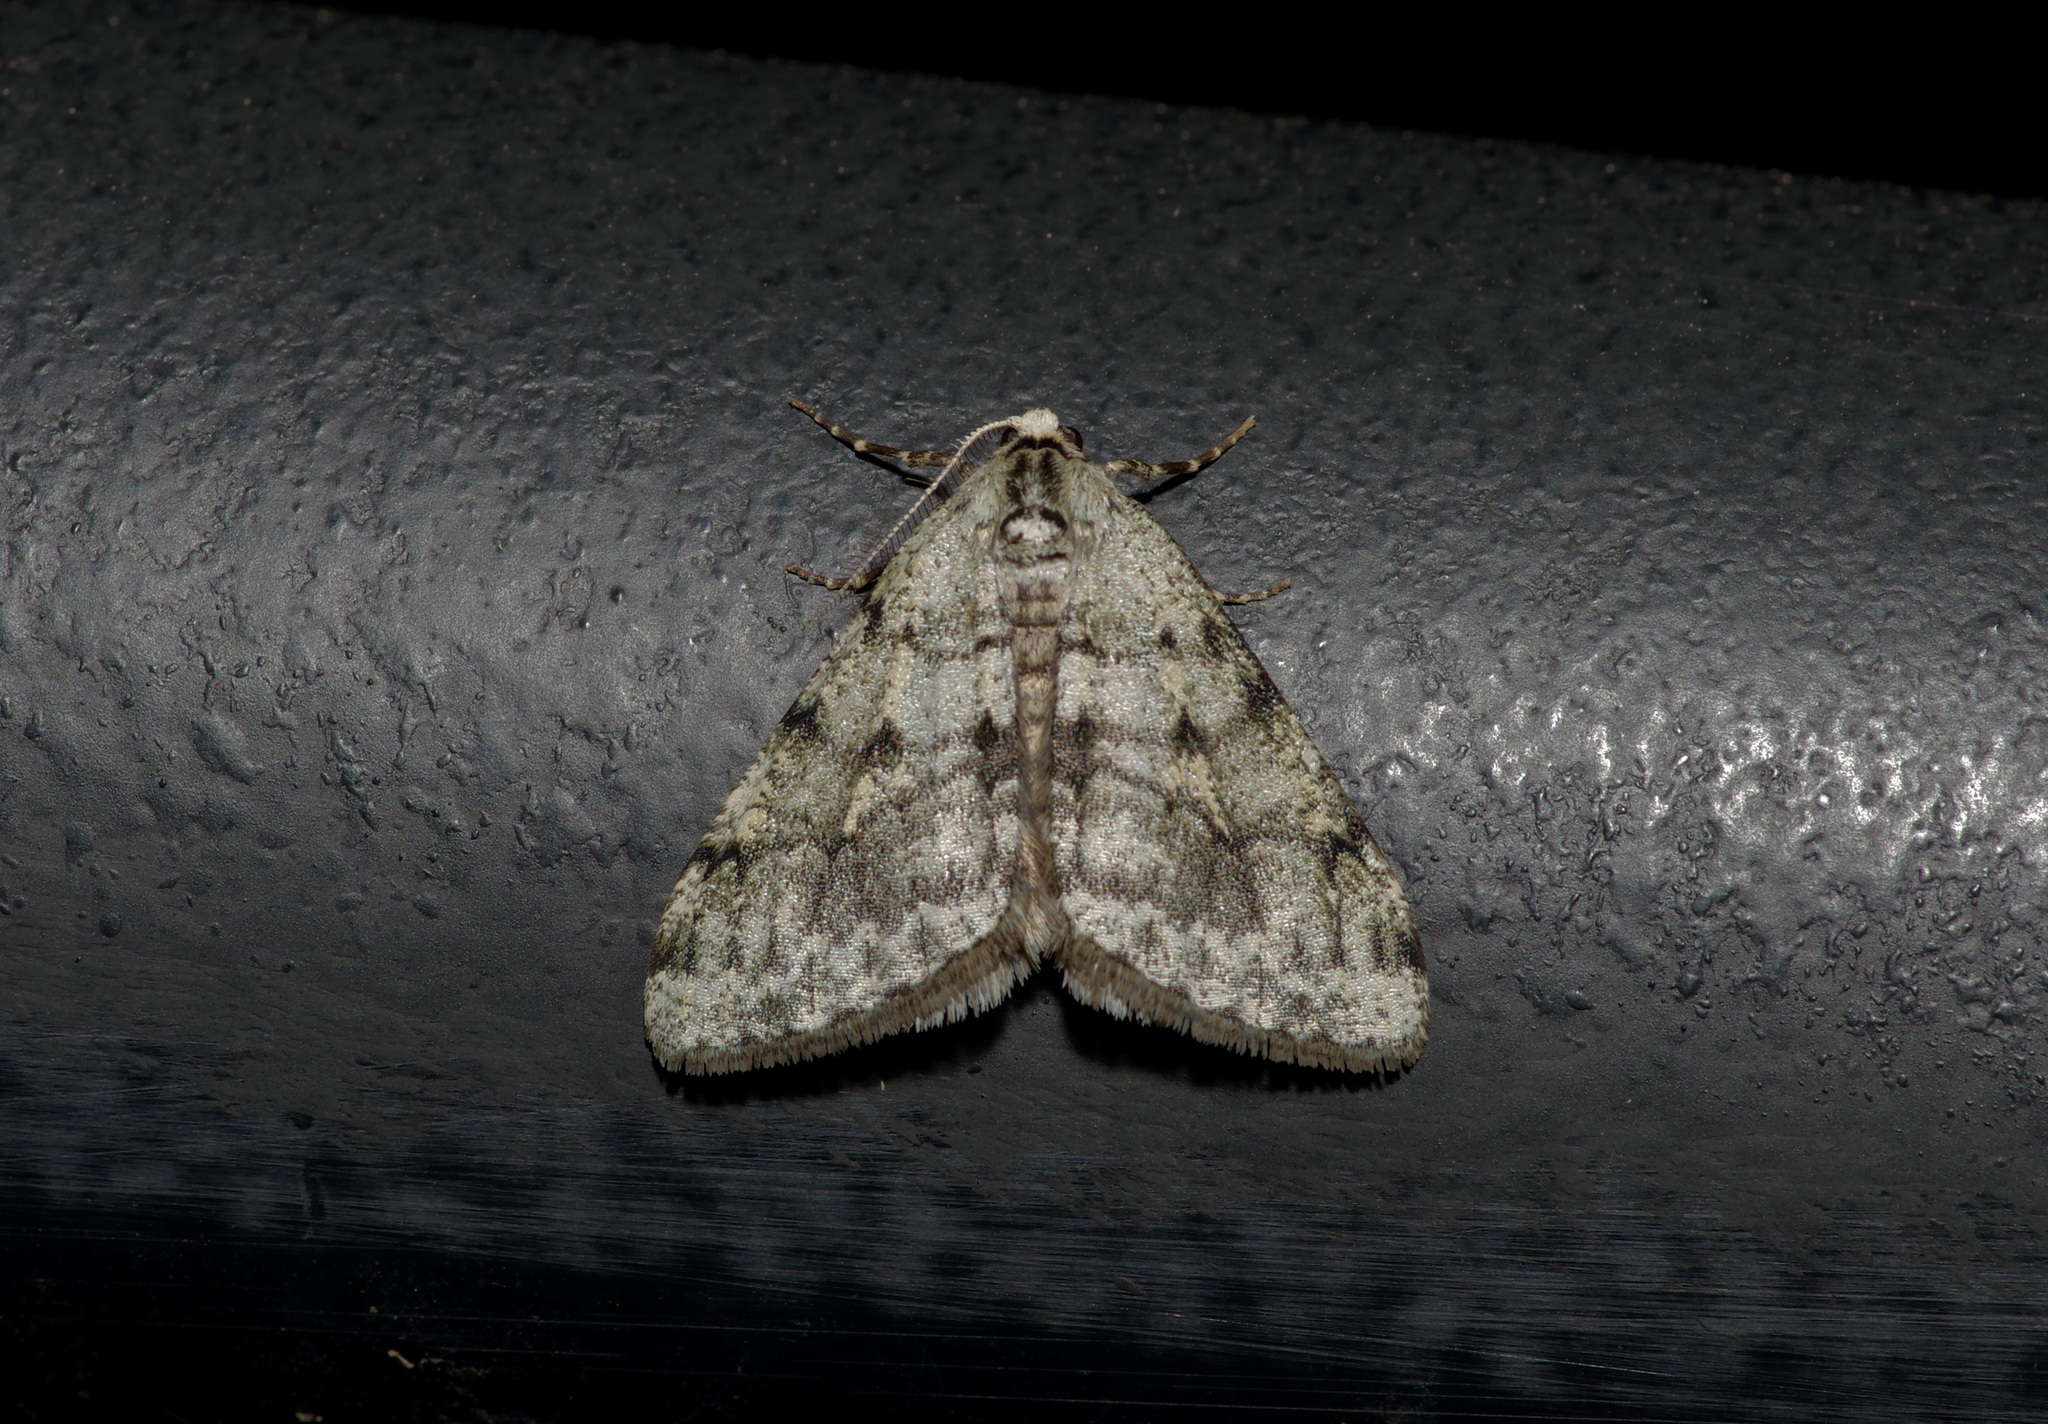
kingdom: Animalia
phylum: Arthropoda
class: Insecta
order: Lepidoptera
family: Geometridae
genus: Phigalia
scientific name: Phigalia strigataria
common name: Small phigalia
